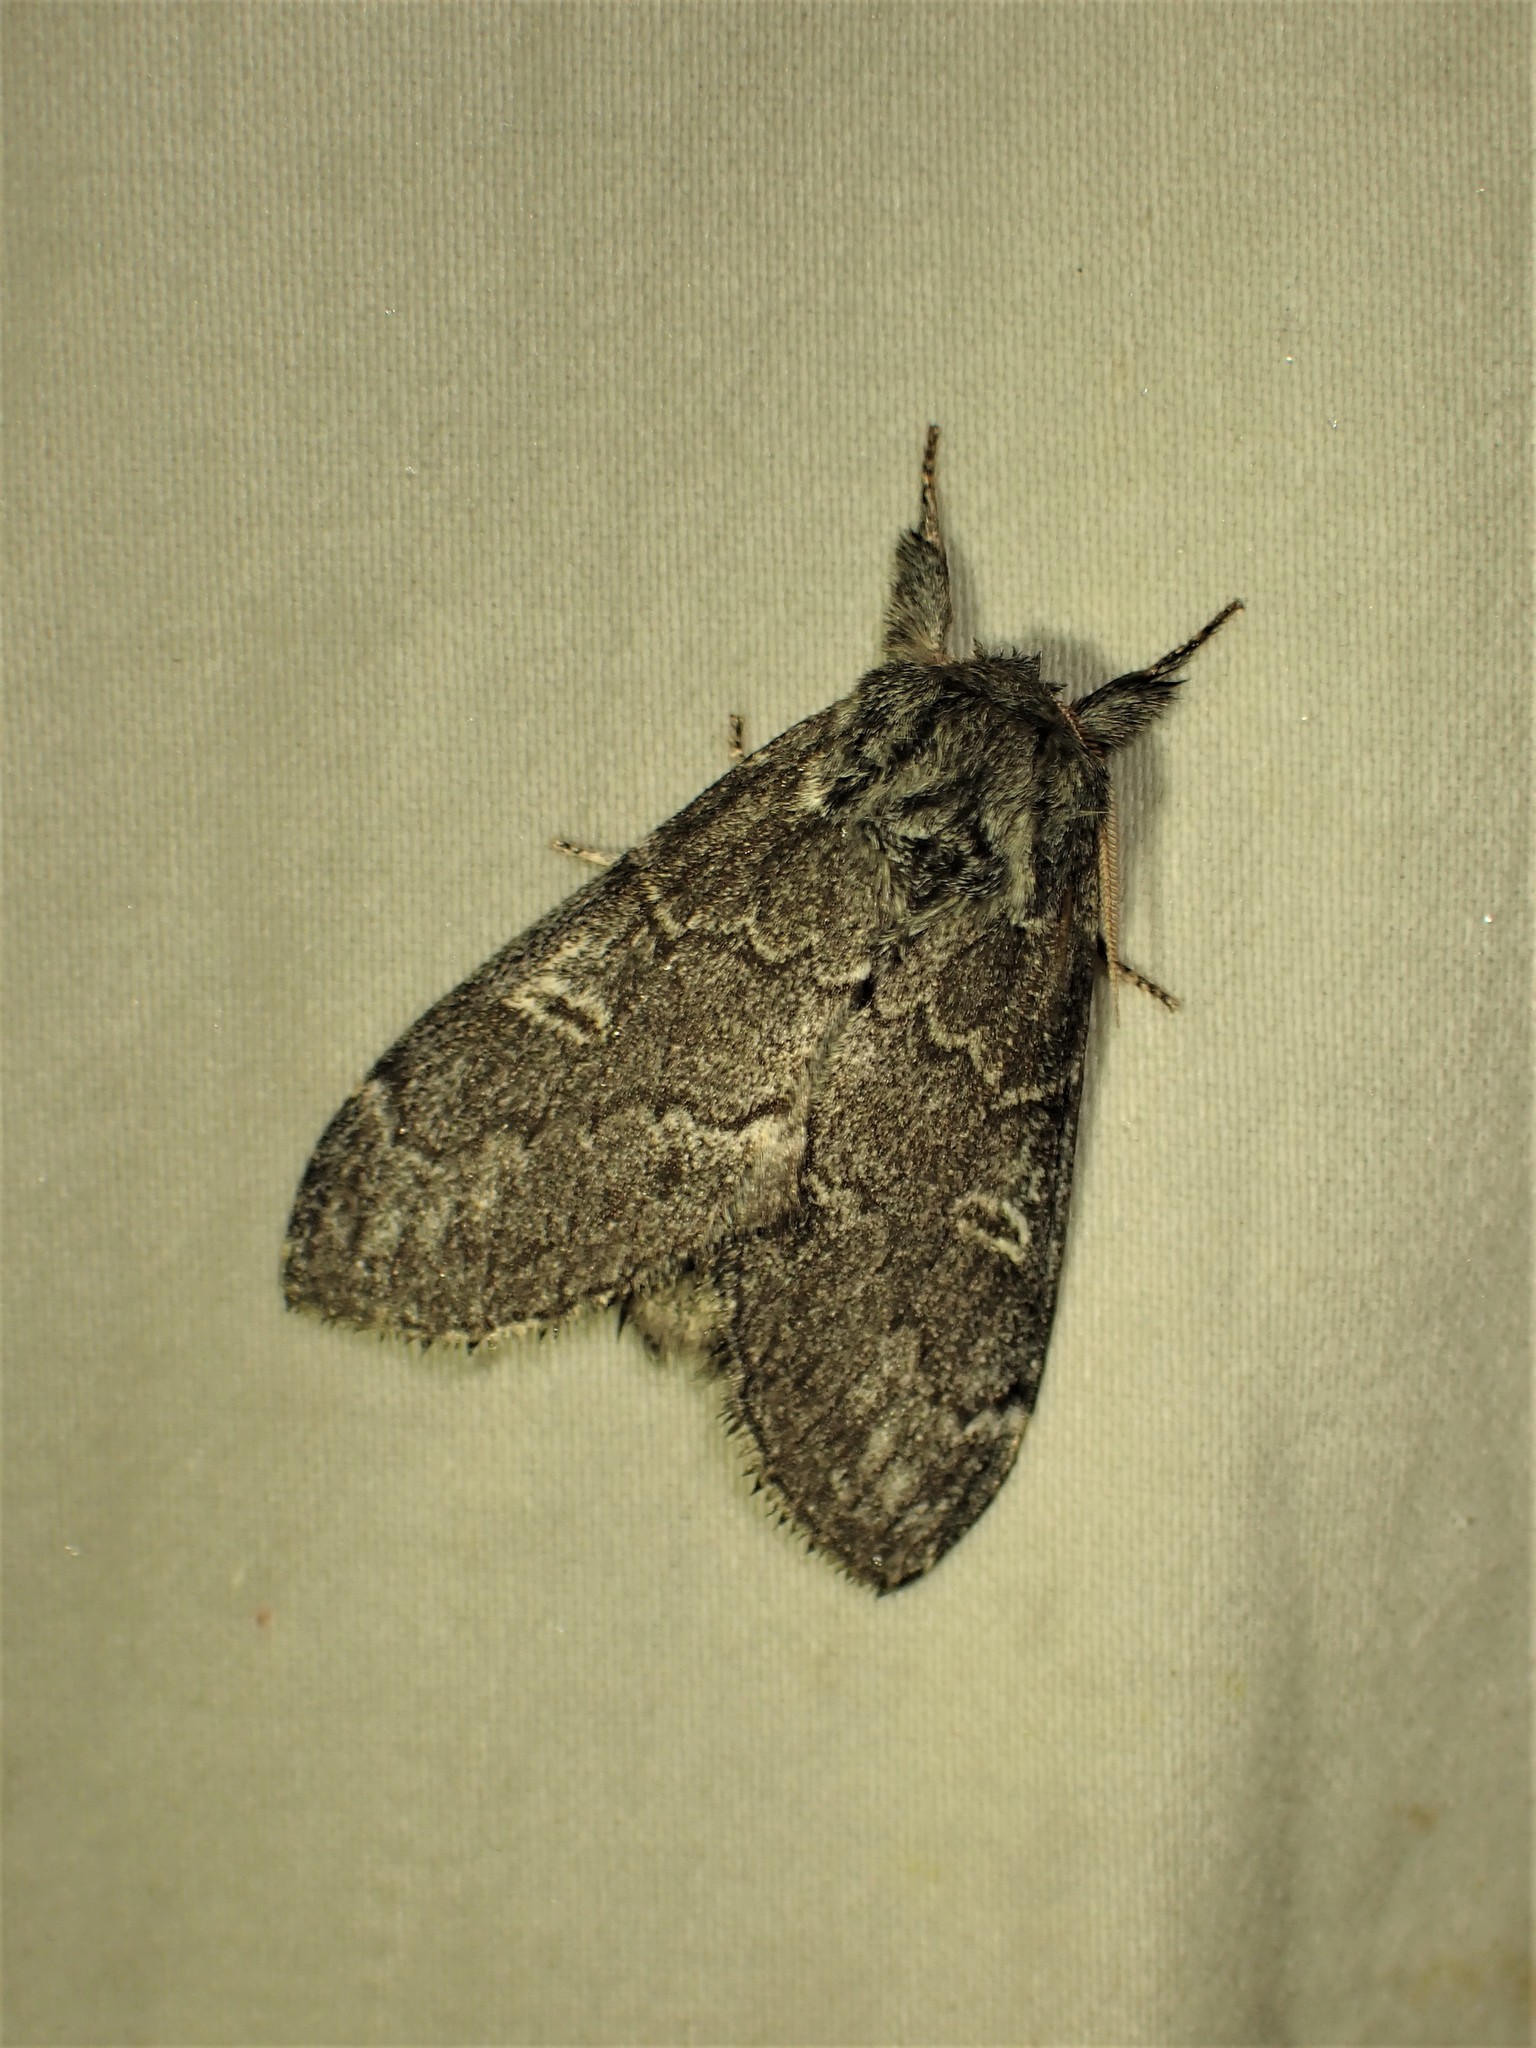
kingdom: Animalia
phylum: Arthropoda
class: Insecta
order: Lepidoptera
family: Notodontidae
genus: Notodonta
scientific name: Notodonta torva
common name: Large dark prominent
